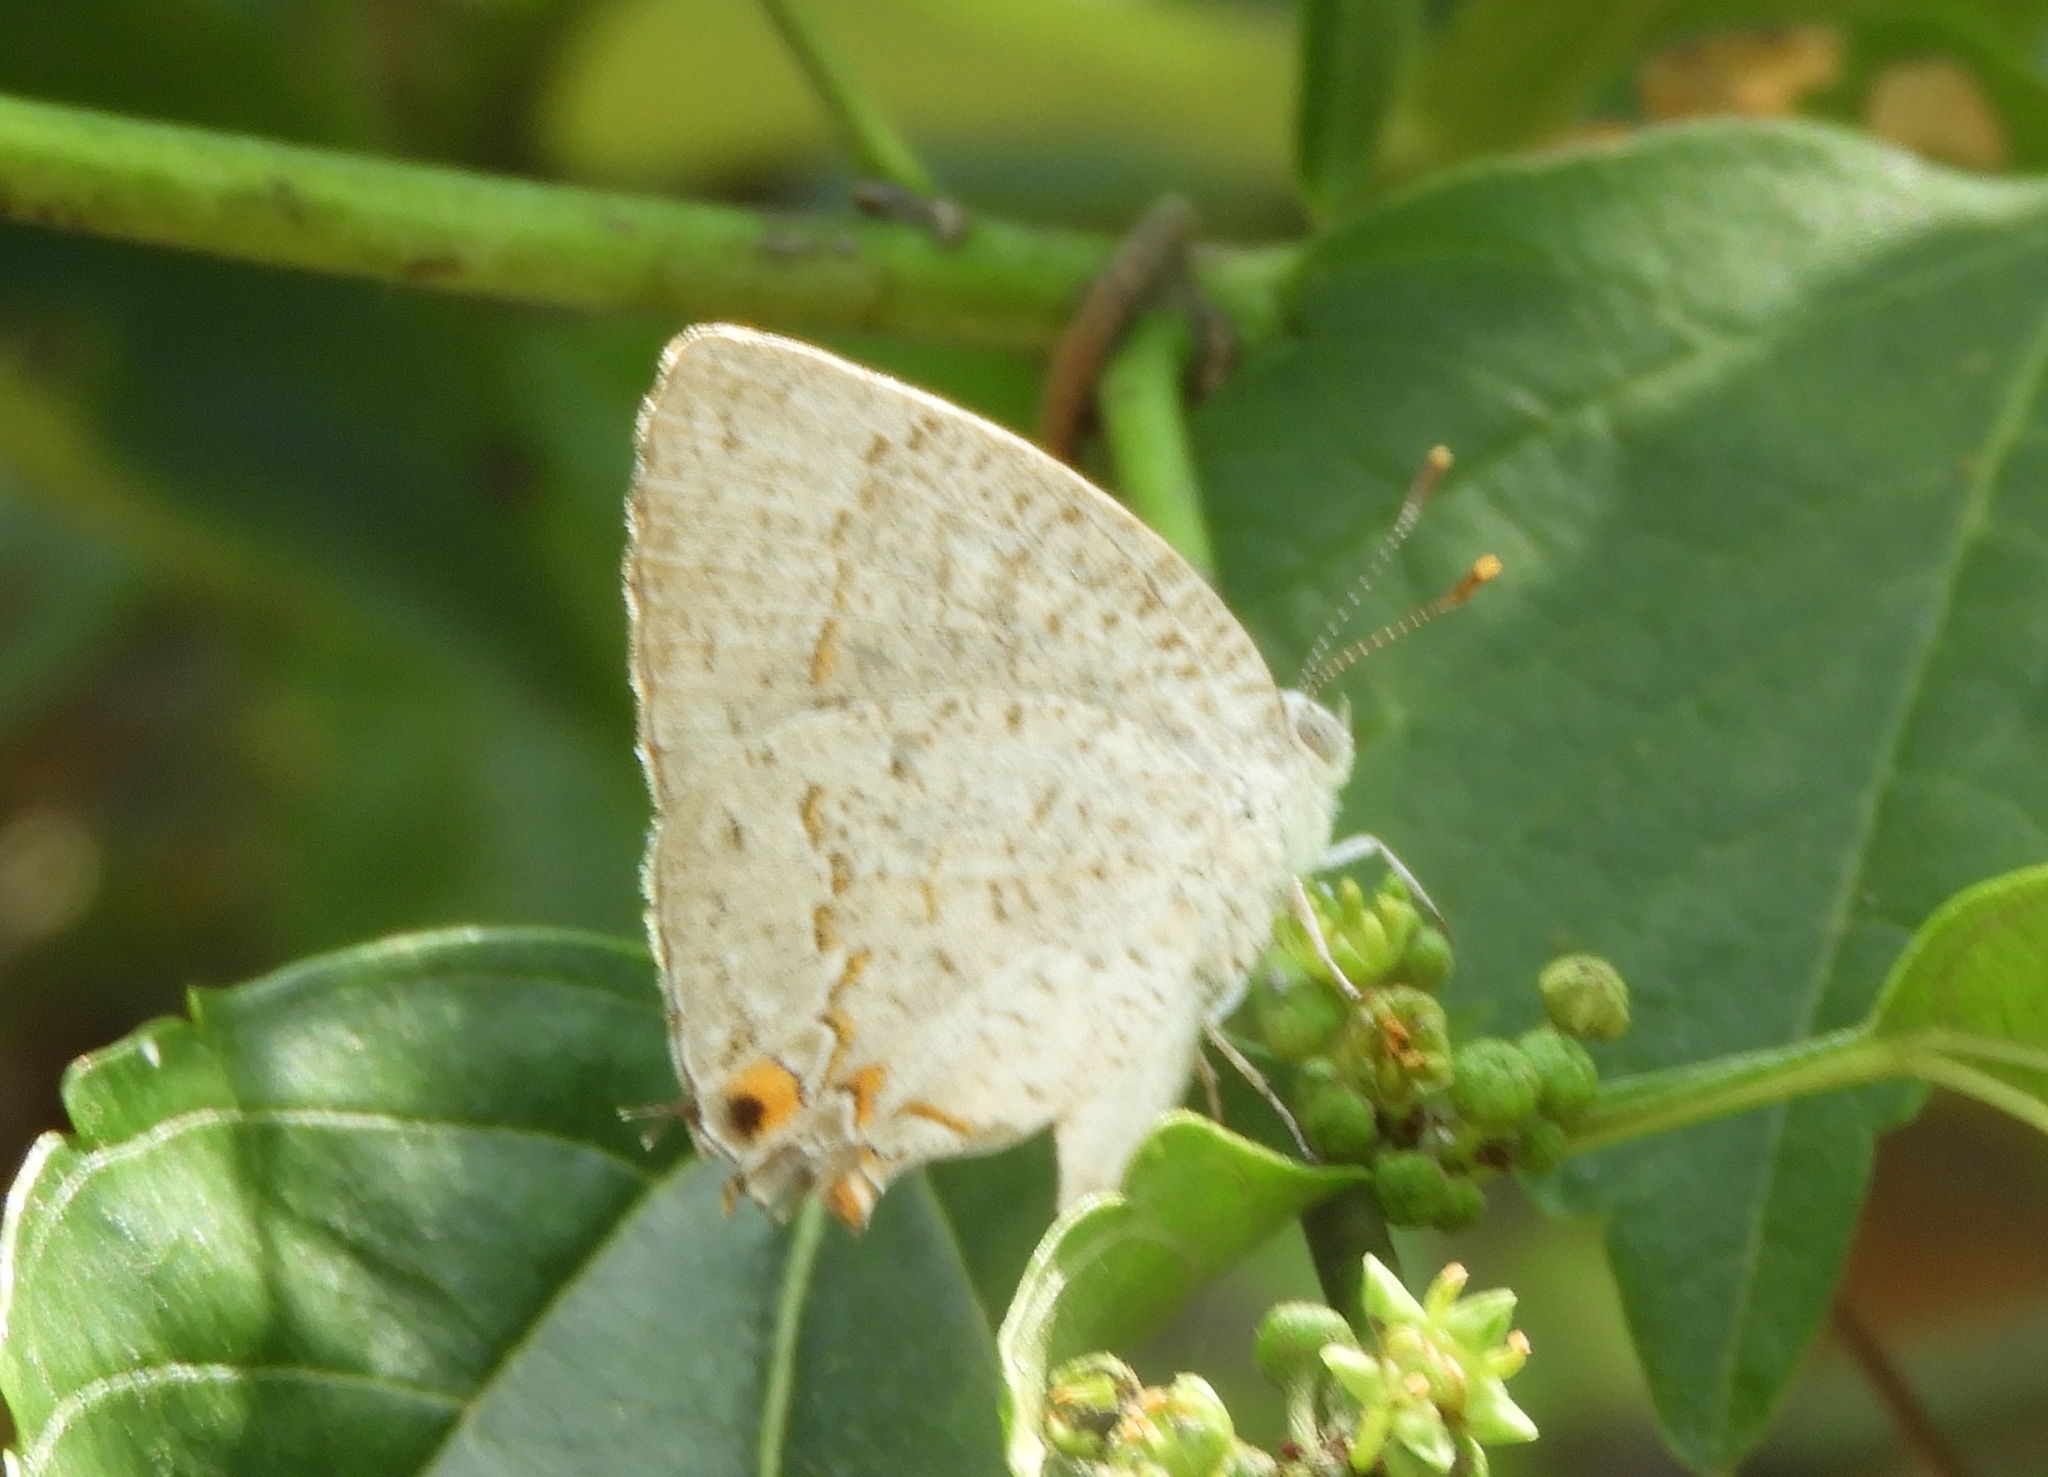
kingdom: Animalia
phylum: Arthropoda
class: Insecta
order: Lepidoptera
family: Lycaenidae
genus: Hypostrymon
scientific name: Hypostrymon critola
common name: Sonoran hairstreak
